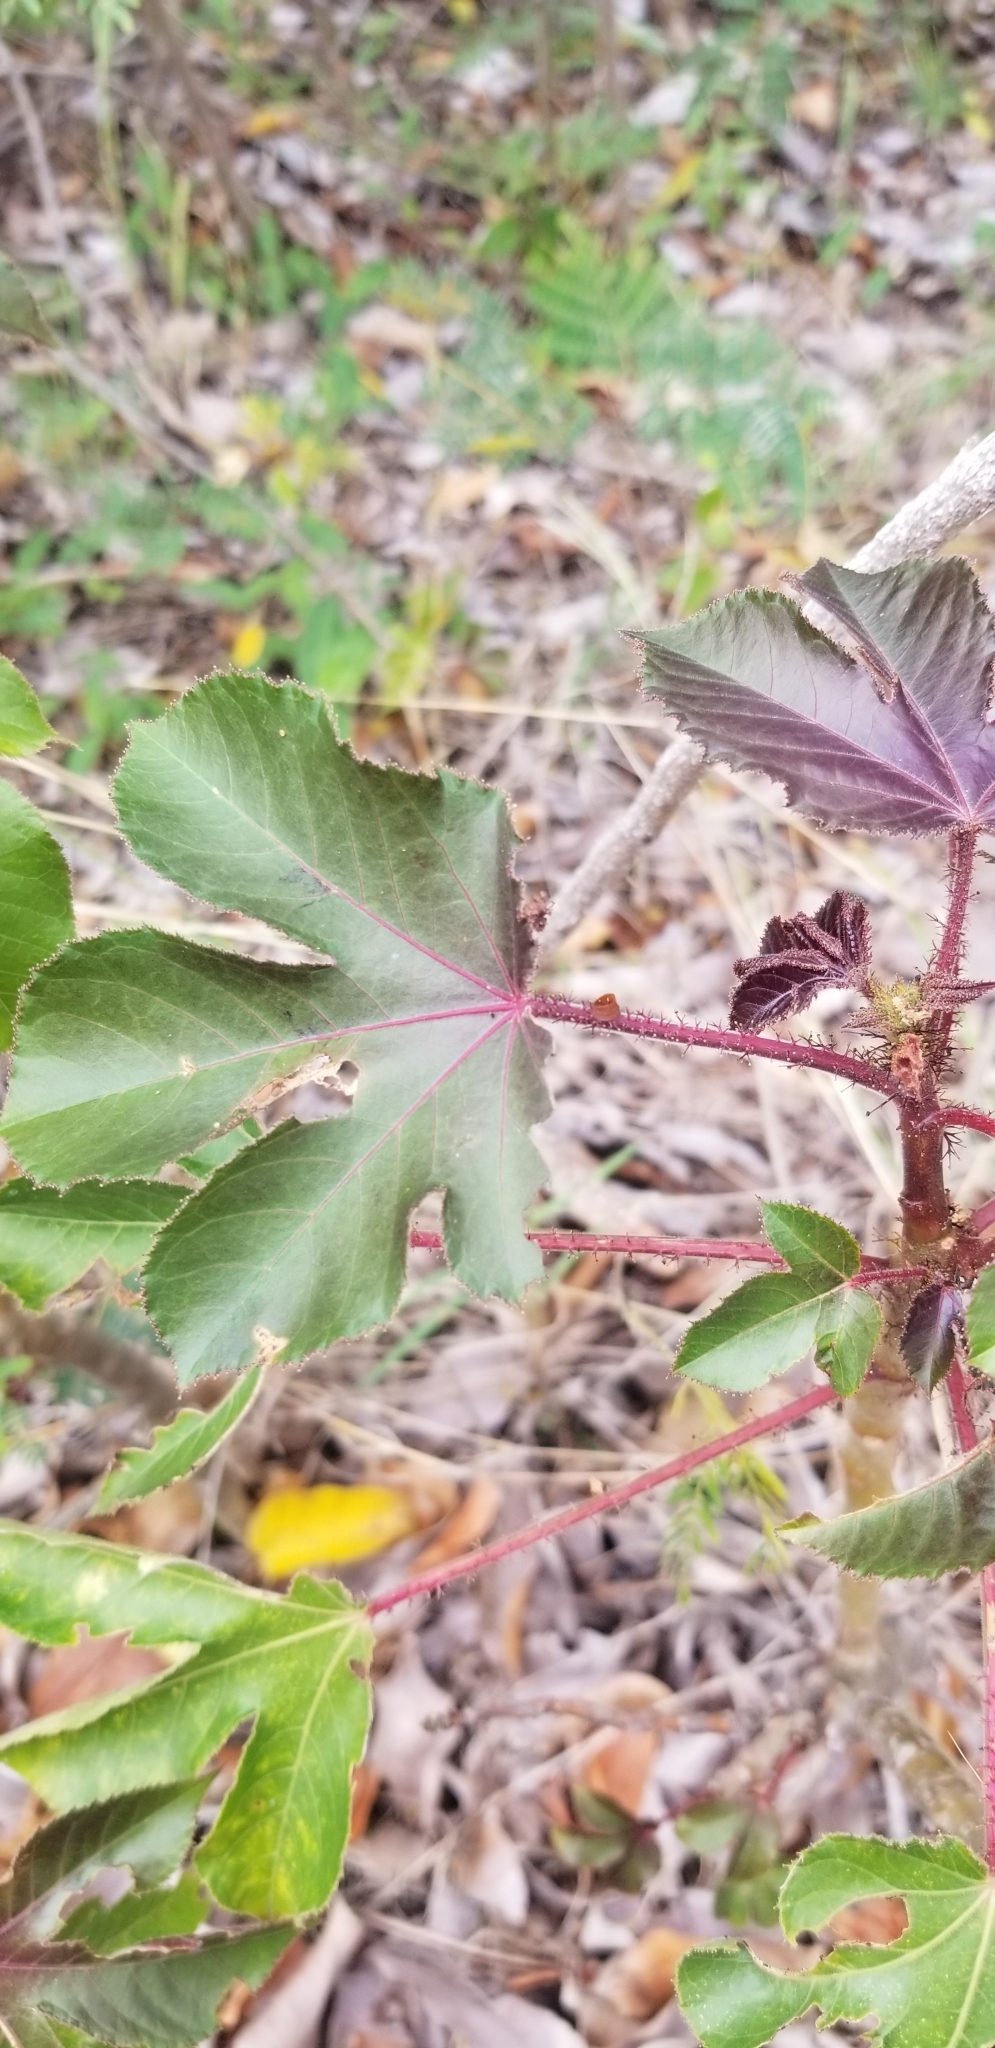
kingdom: Plantae
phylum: Tracheophyta
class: Magnoliopsida
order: Malpighiales
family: Euphorbiaceae
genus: Jatropha
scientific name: Jatropha gossypiifolia
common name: Bellyache bush
